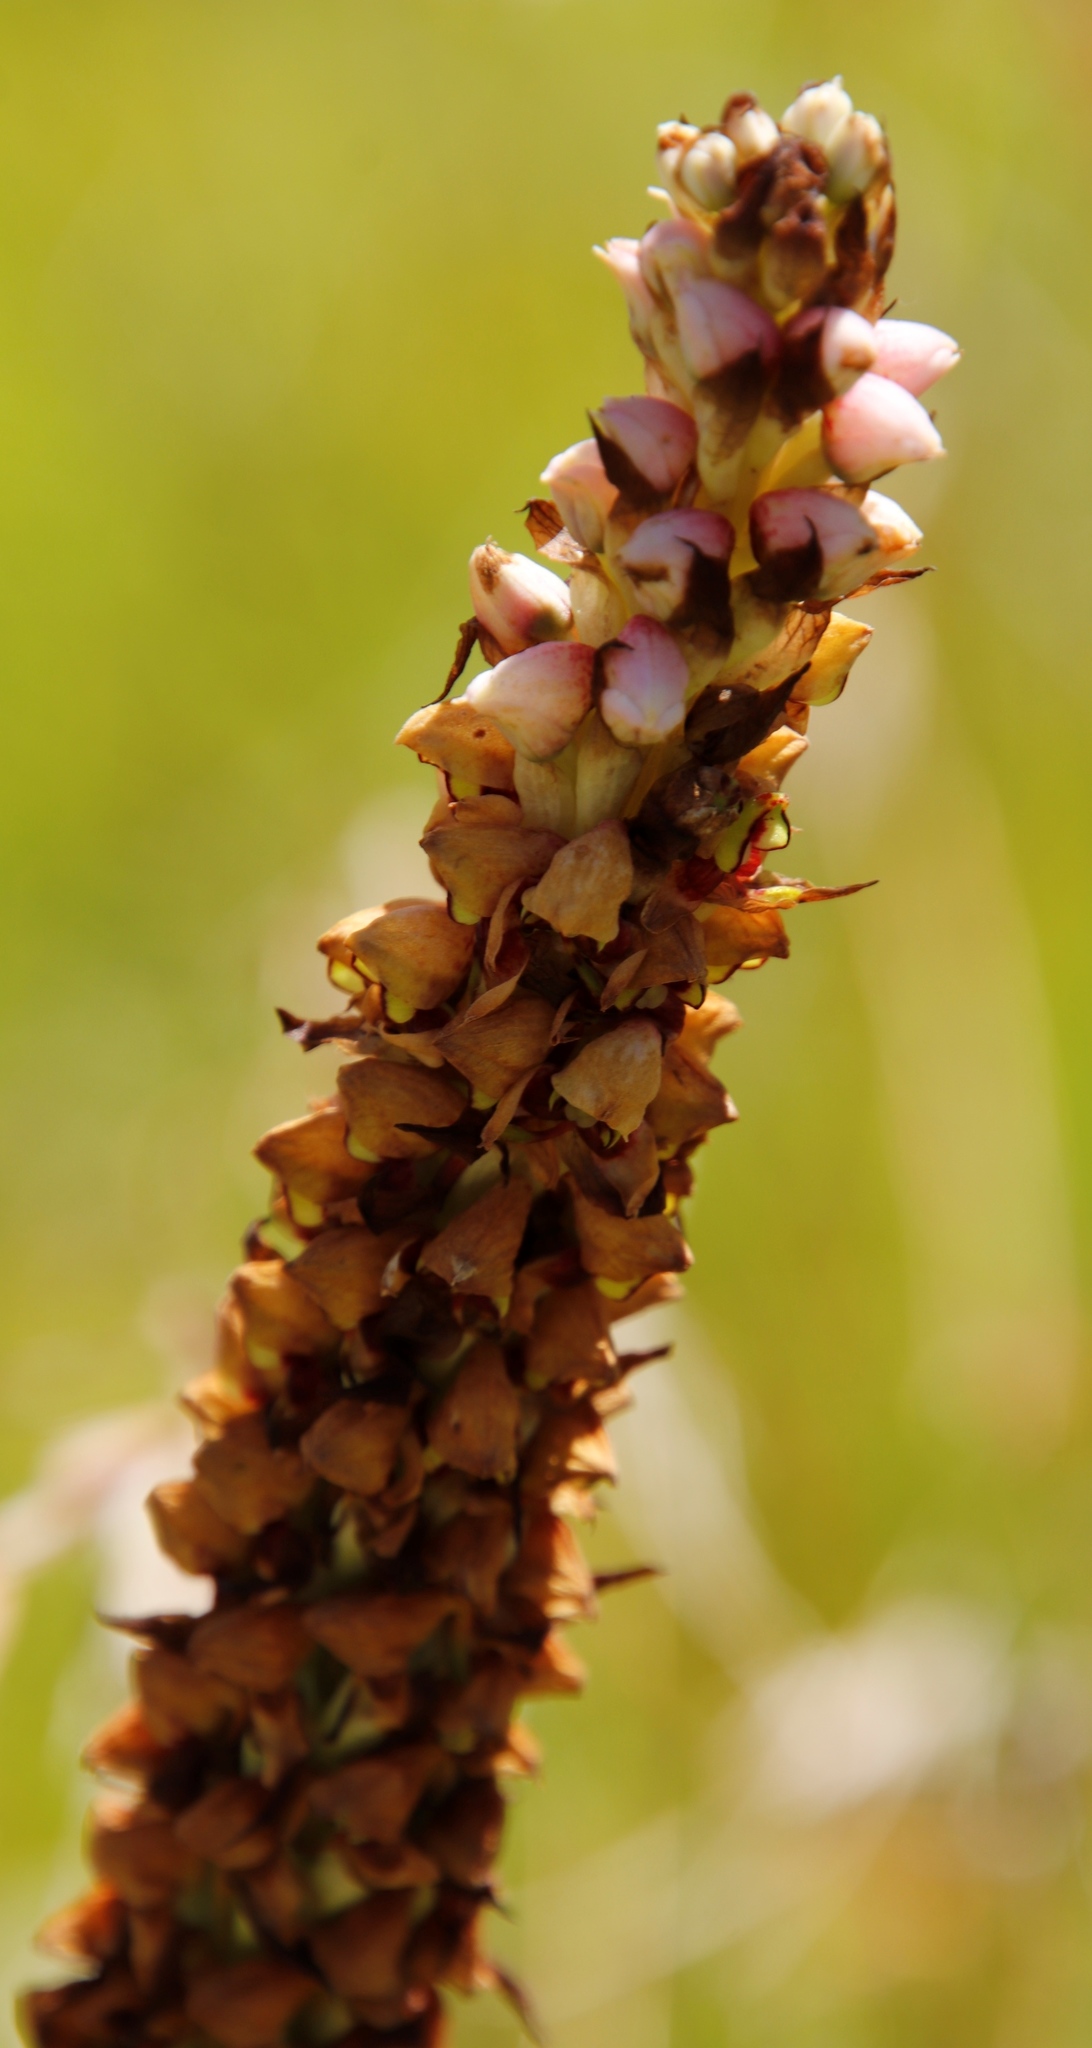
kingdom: Plantae
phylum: Tracheophyta
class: Liliopsida
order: Asparagales
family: Orchidaceae
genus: Disa
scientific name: Disa versicolor
